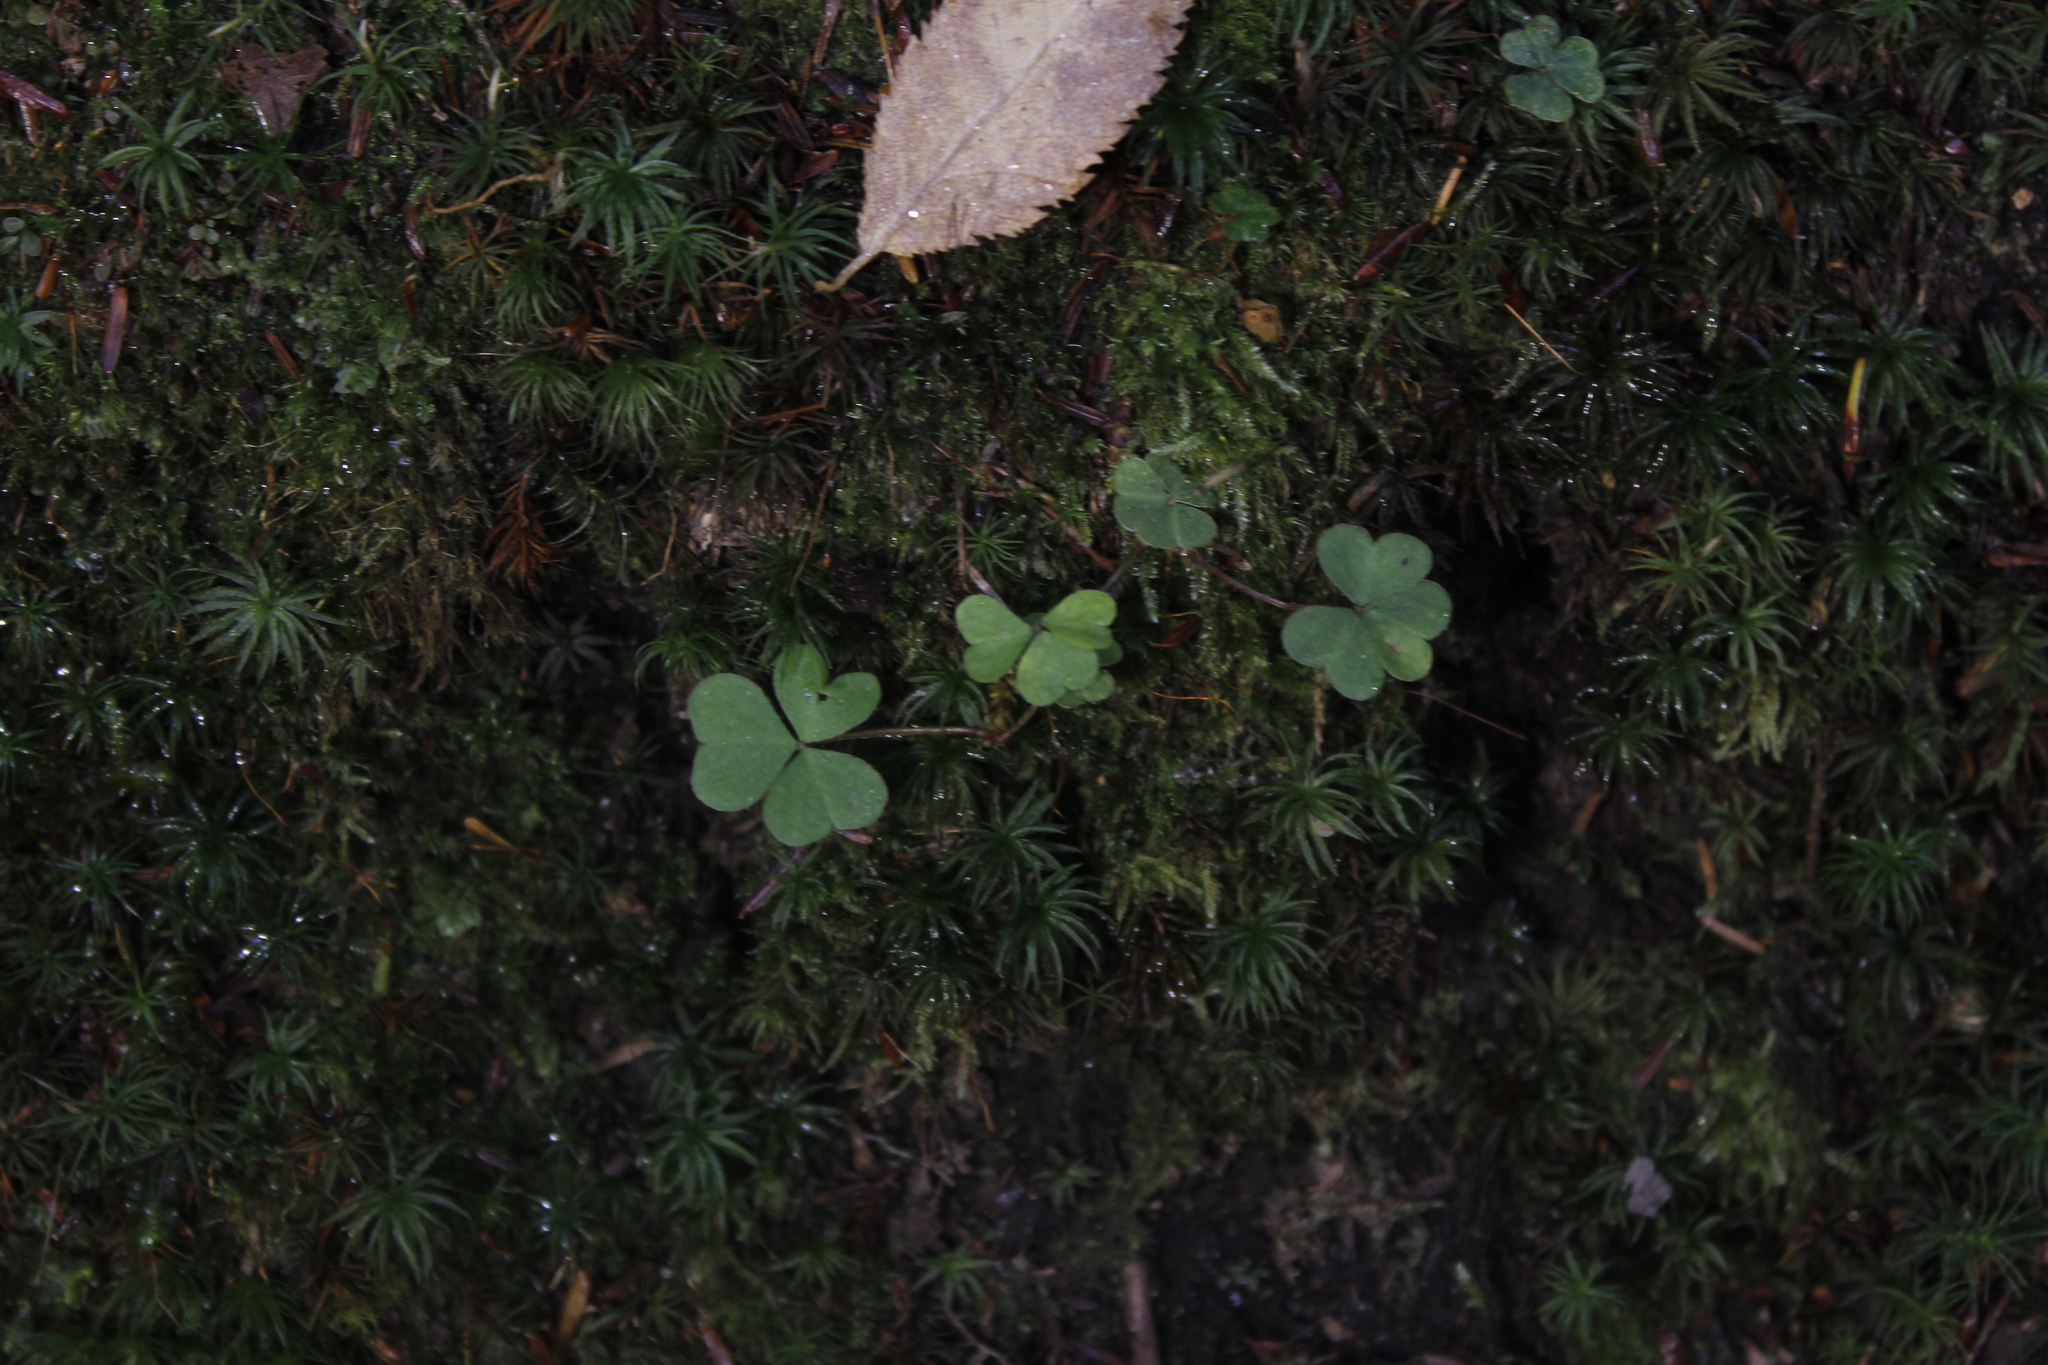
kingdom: Plantae
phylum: Tracheophyta
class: Magnoliopsida
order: Oxalidales
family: Oxalidaceae
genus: Oxalis
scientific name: Oxalis montana
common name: American wood-sorrel
